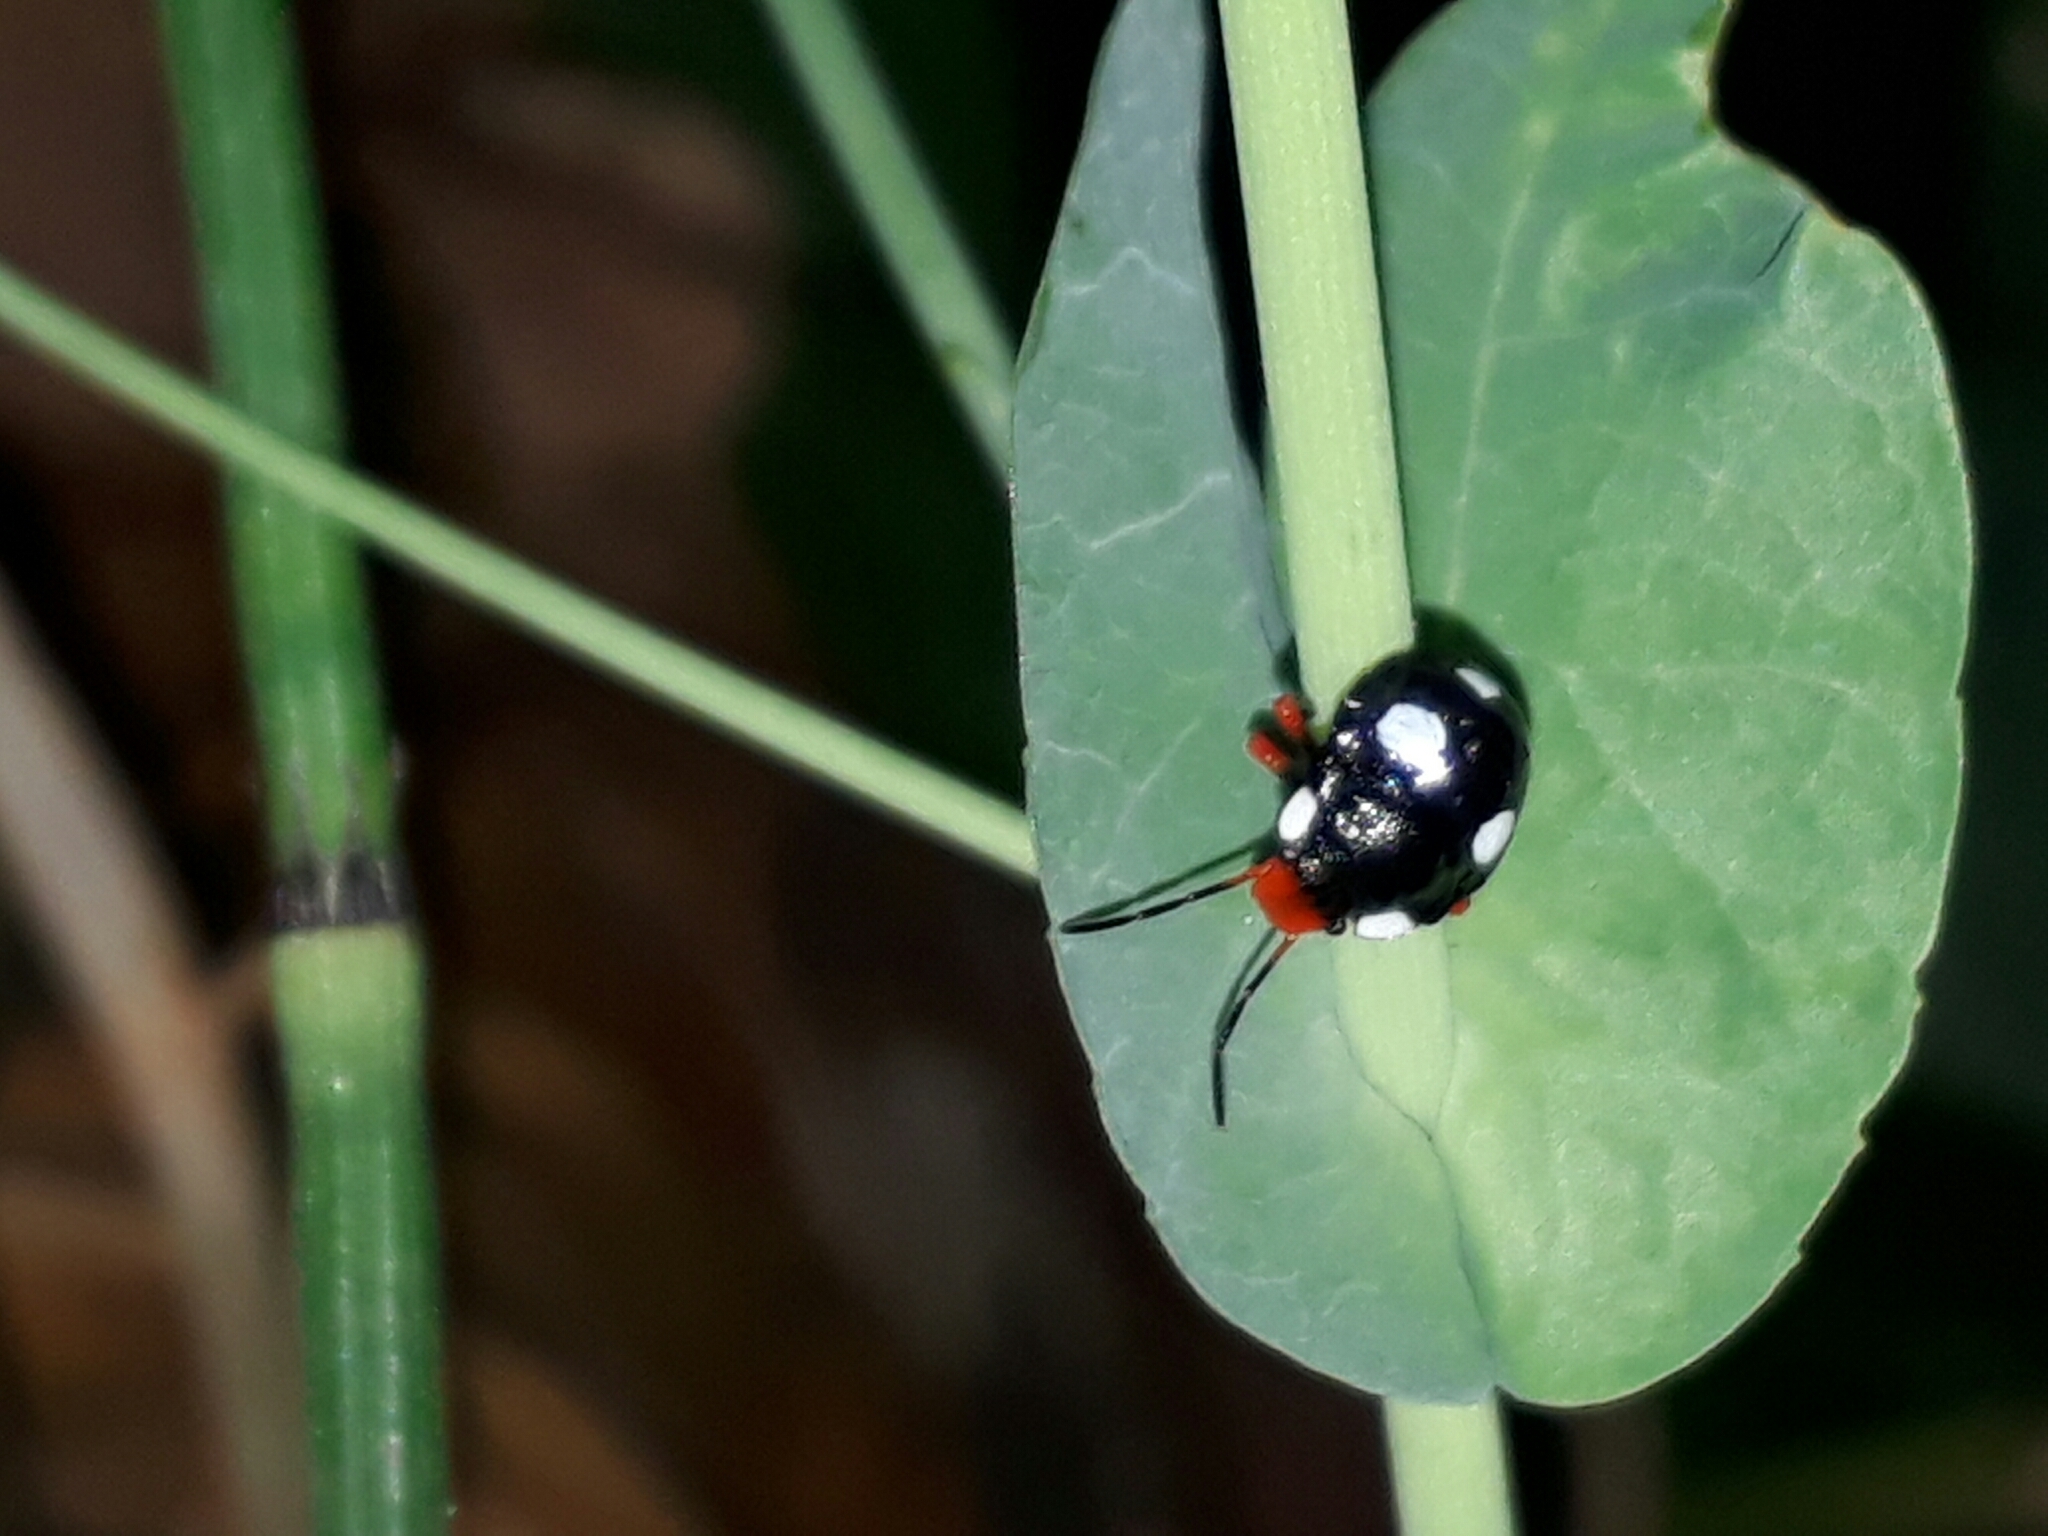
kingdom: Animalia
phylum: Arthropoda
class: Insecta
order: Hemiptera
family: Pentatomidae
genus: Chinavia
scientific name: Chinavia erythrocnemis
